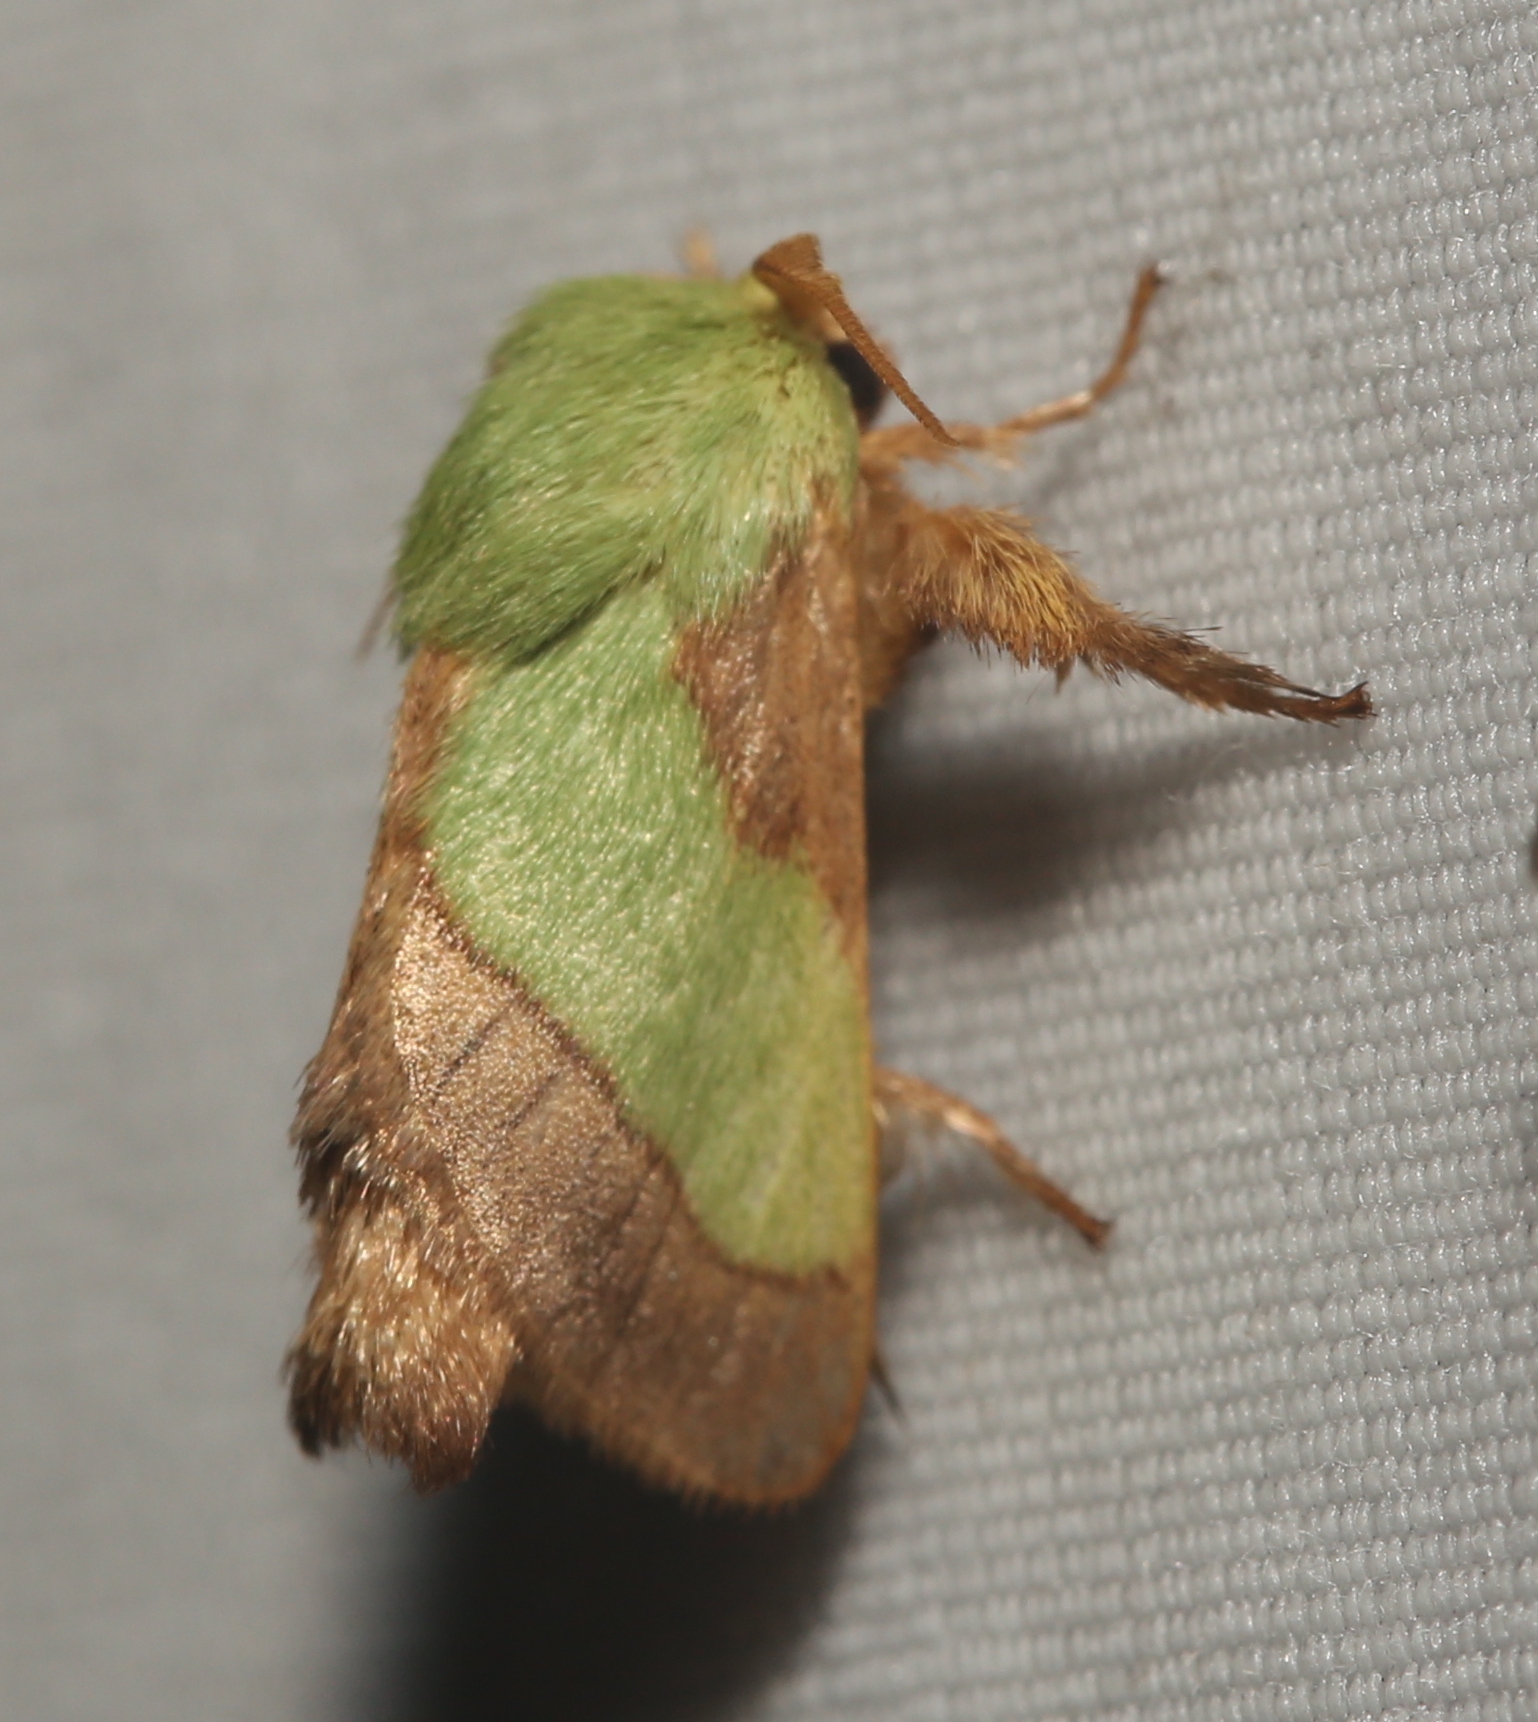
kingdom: Animalia
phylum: Arthropoda
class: Insecta
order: Lepidoptera
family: Limacodidae
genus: Parasa
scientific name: Parasa chloris
